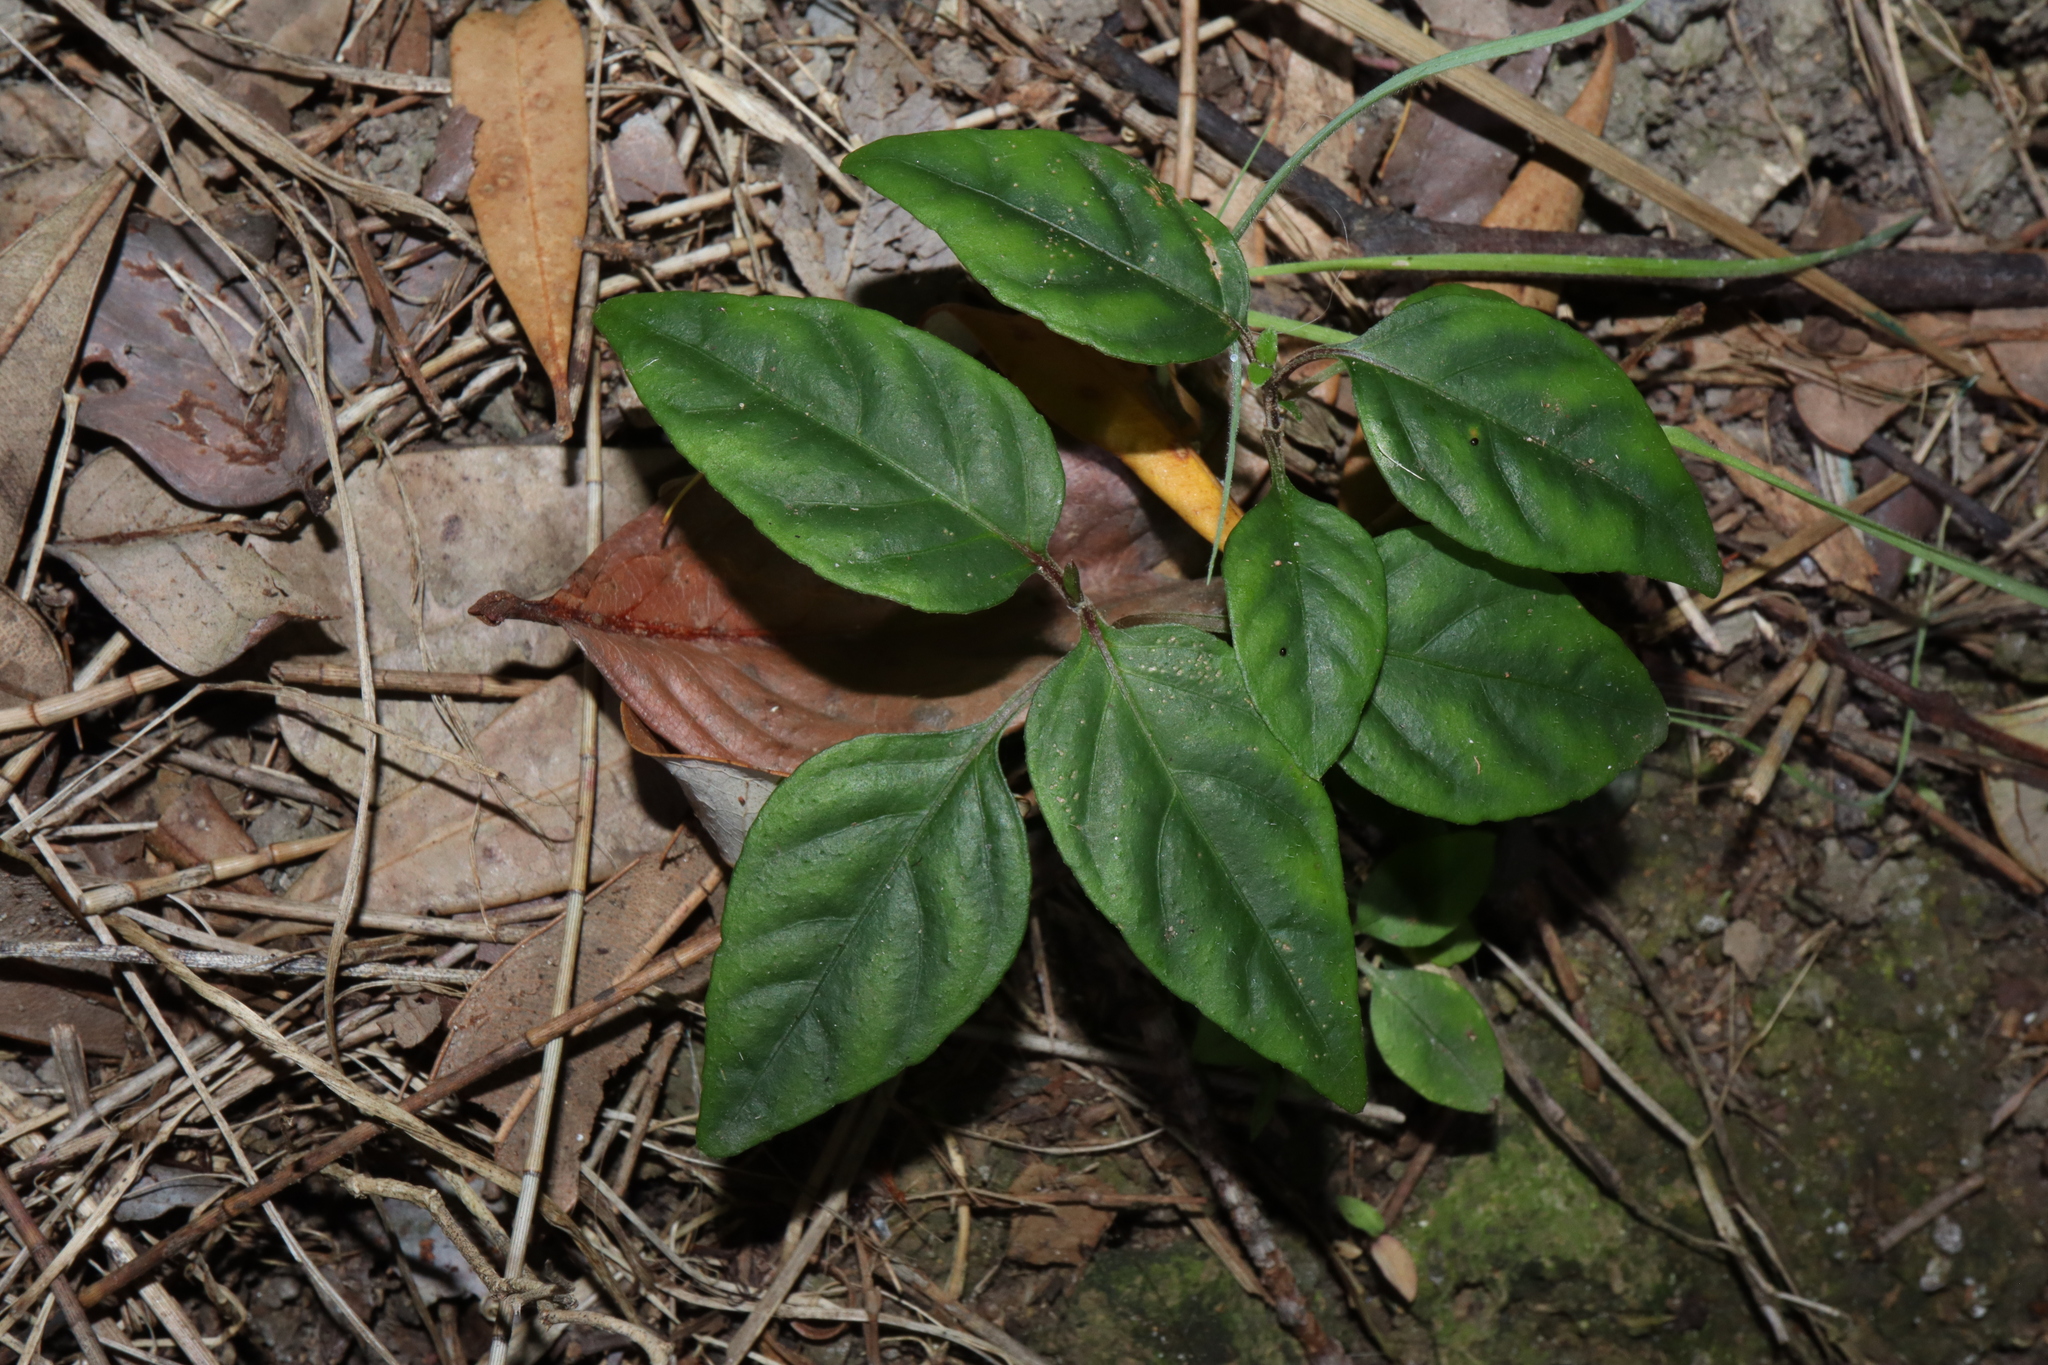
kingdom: Plantae
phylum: Tracheophyta
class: Magnoliopsida
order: Lamiales
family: Acanthaceae
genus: Pseuderanthemum
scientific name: Pseuderanthemum variabile
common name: Night and afternoon
